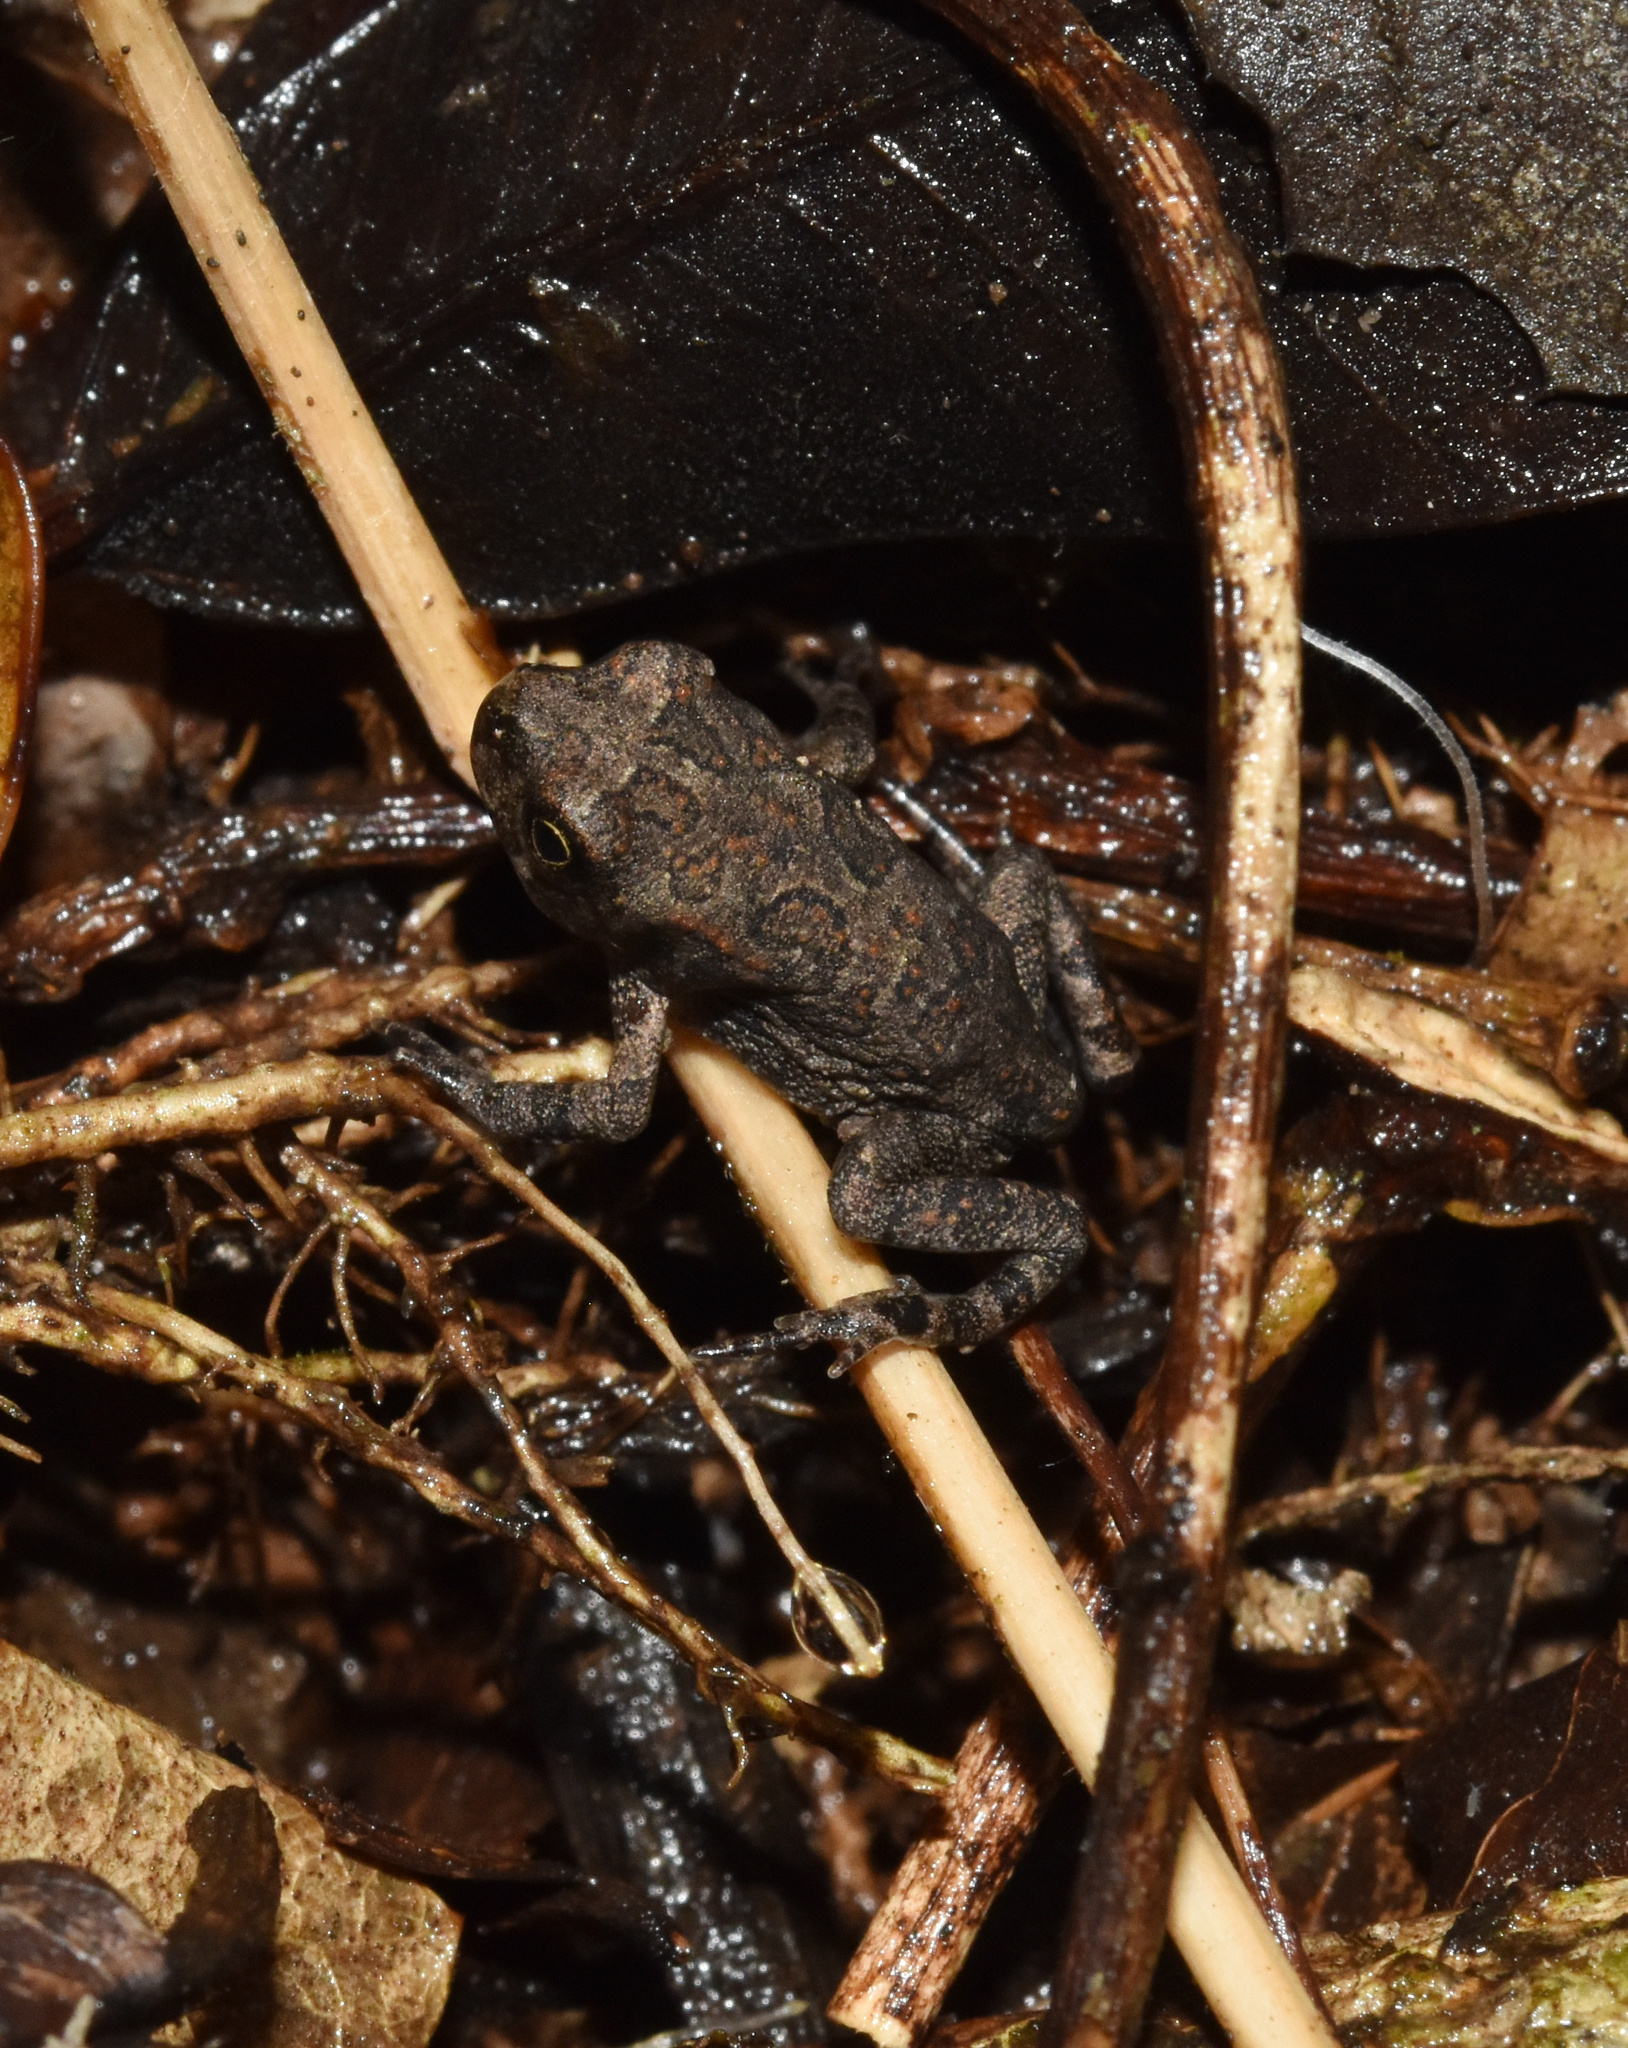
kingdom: Animalia
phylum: Chordata
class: Amphibia
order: Anura
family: Bufonidae
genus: Sclerophrys
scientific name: Sclerophrys gutturalis
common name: African common toad
